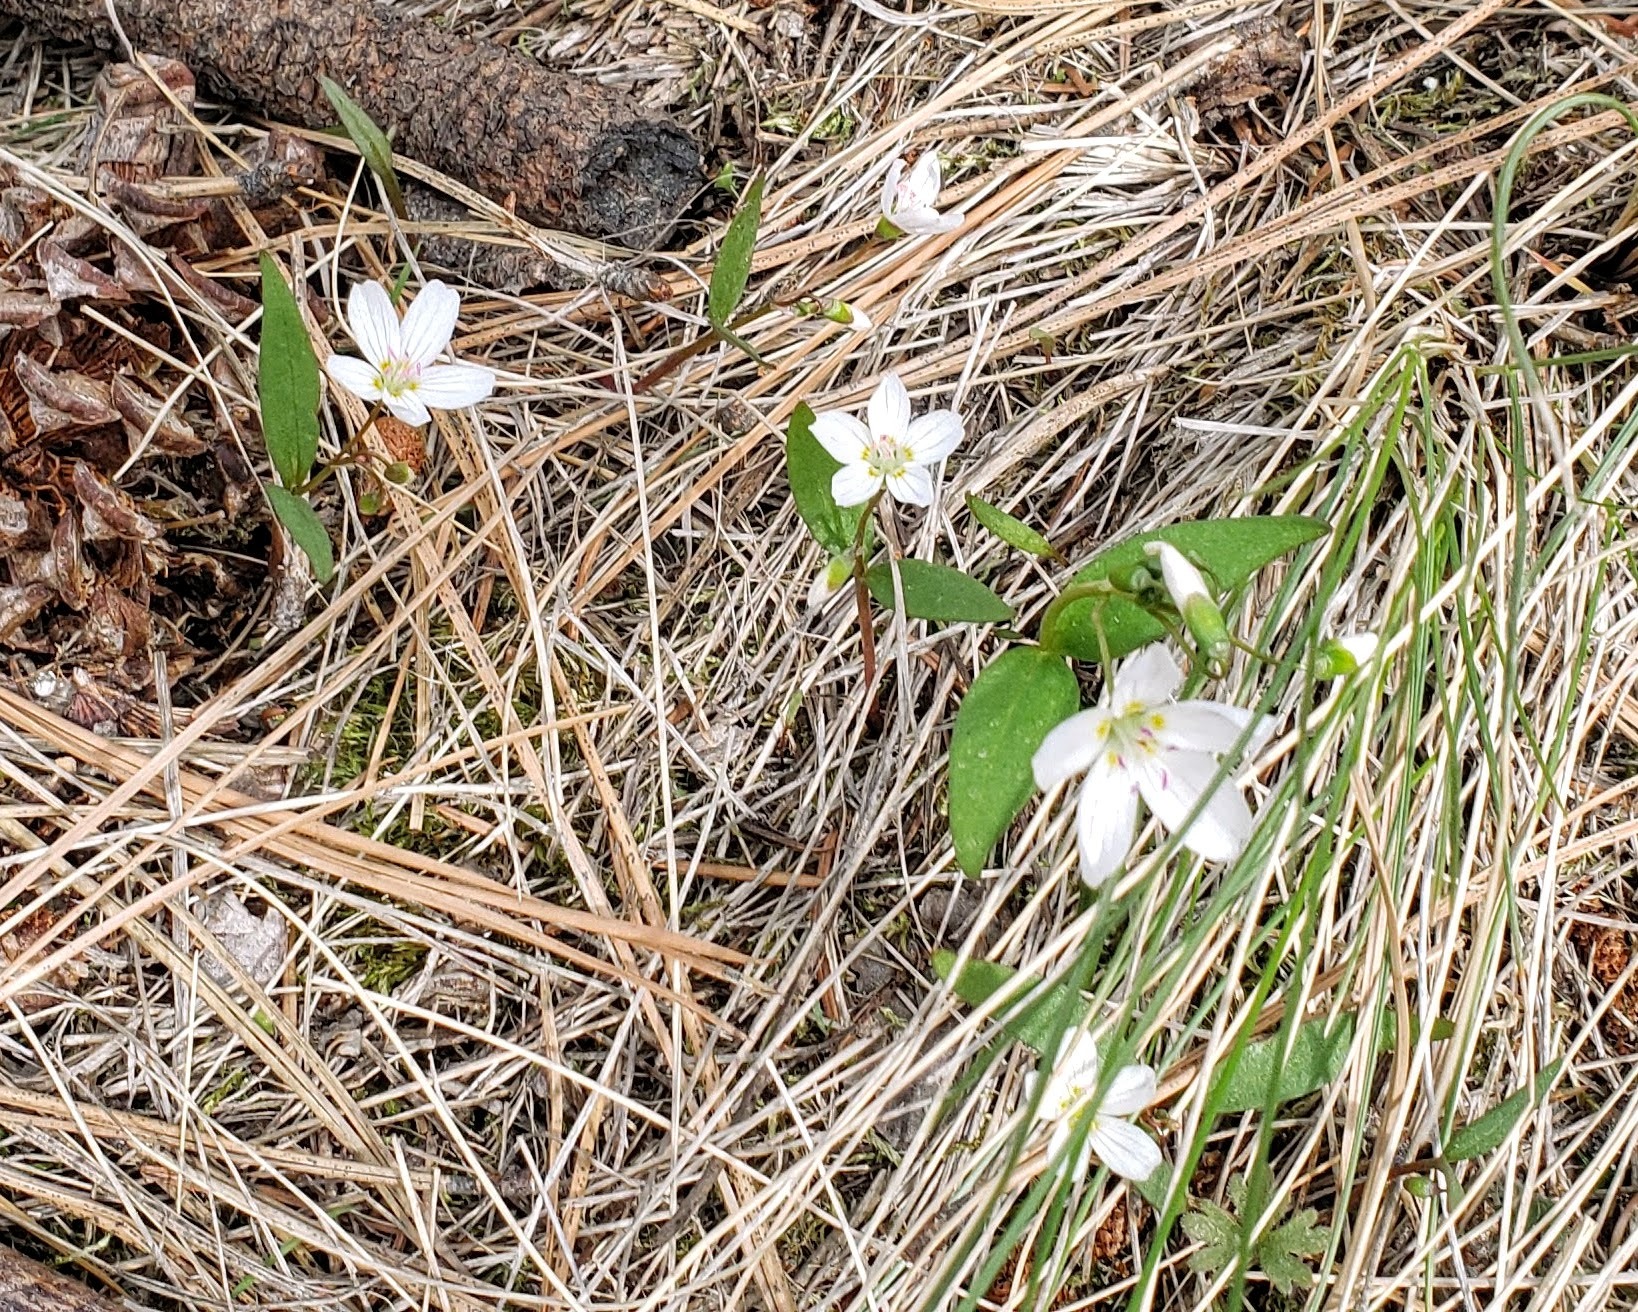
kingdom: Plantae
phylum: Tracheophyta
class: Magnoliopsida
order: Caryophyllales
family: Montiaceae
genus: Claytonia
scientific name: Claytonia lanceolata
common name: Western spring-beauty
